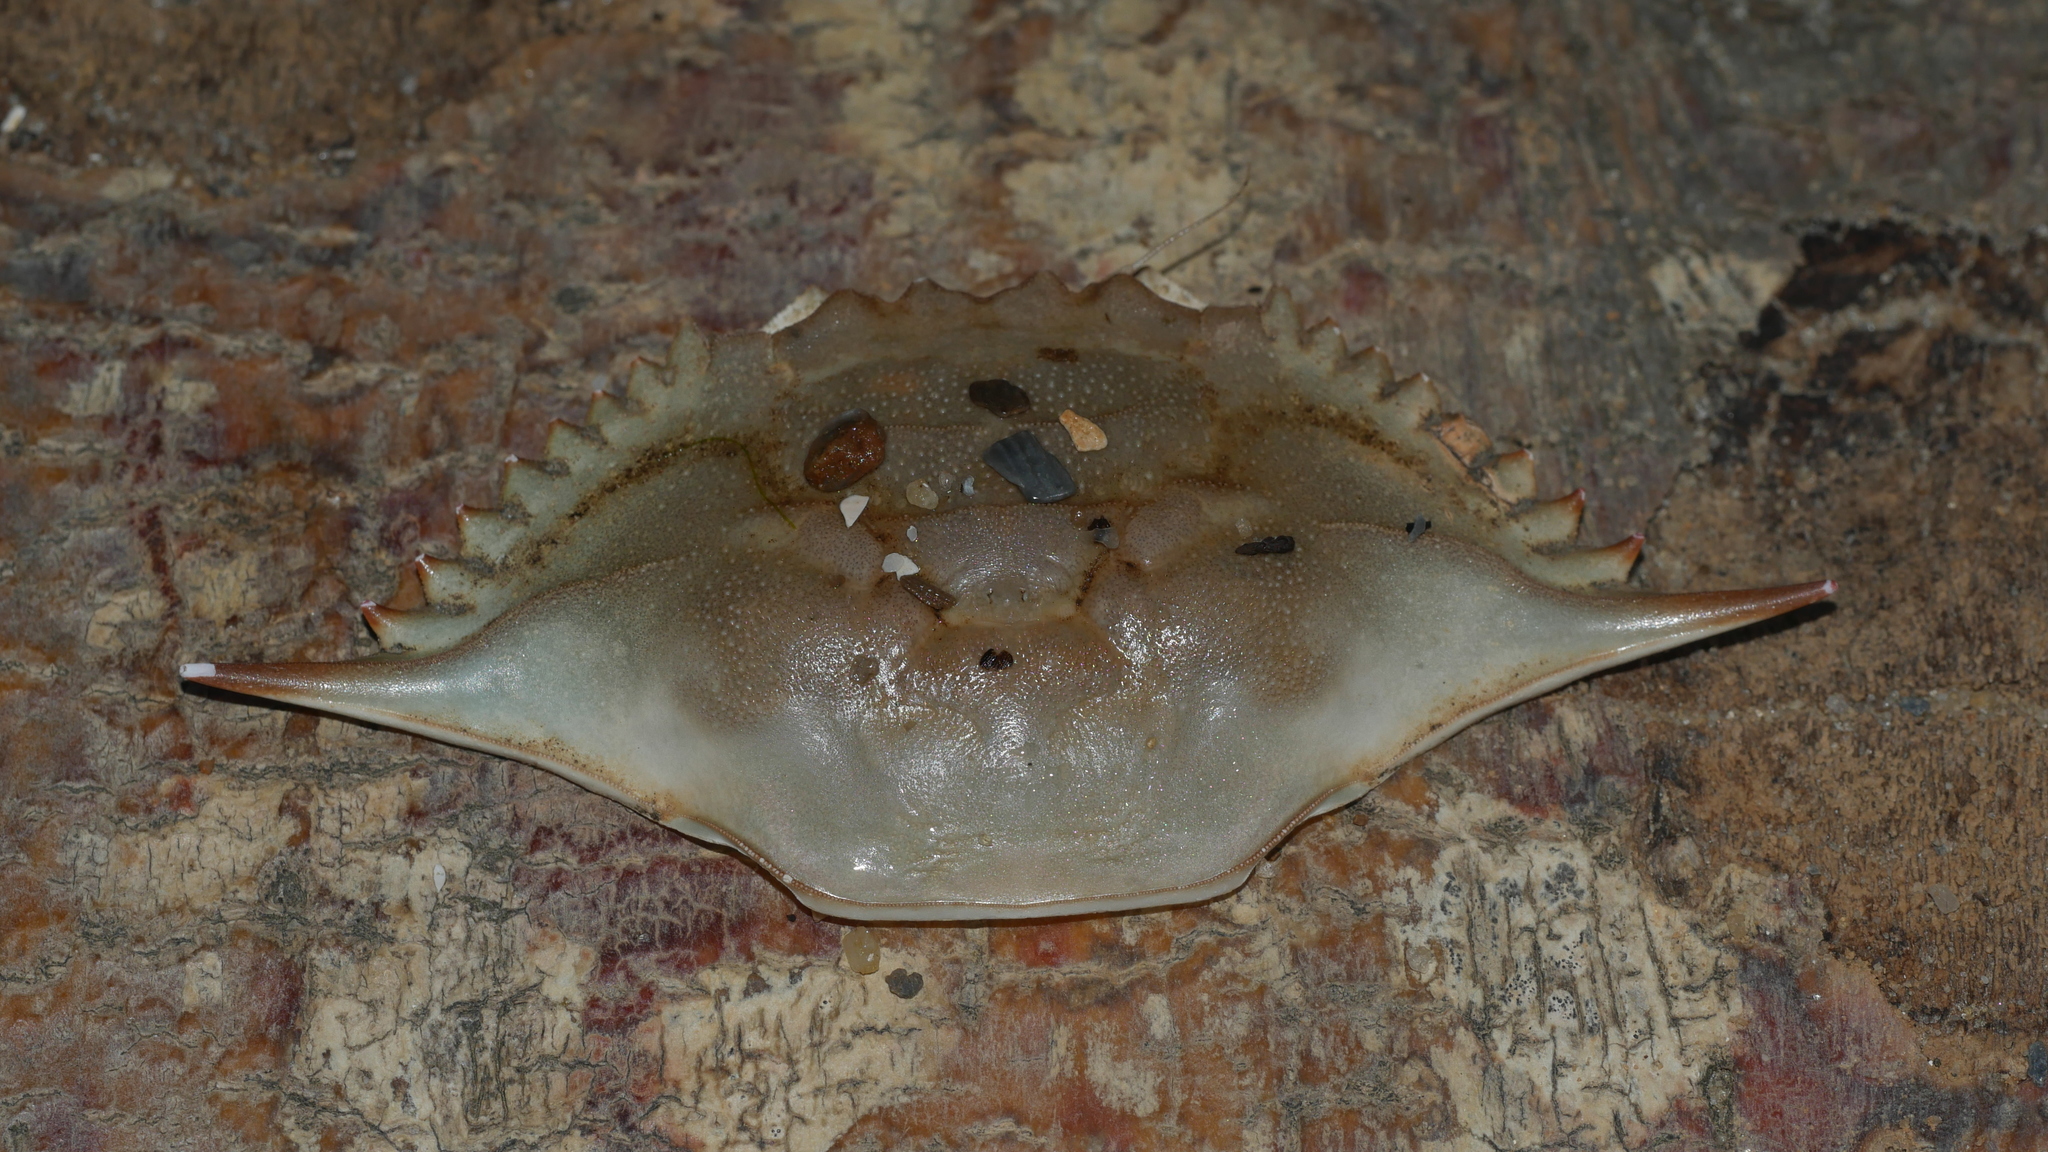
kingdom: Animalia
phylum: Arthropoda
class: Malacostraca
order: Decapoda
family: Portunidae
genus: Callinectes
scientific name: Callinectes sapidus
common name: Blue crab
